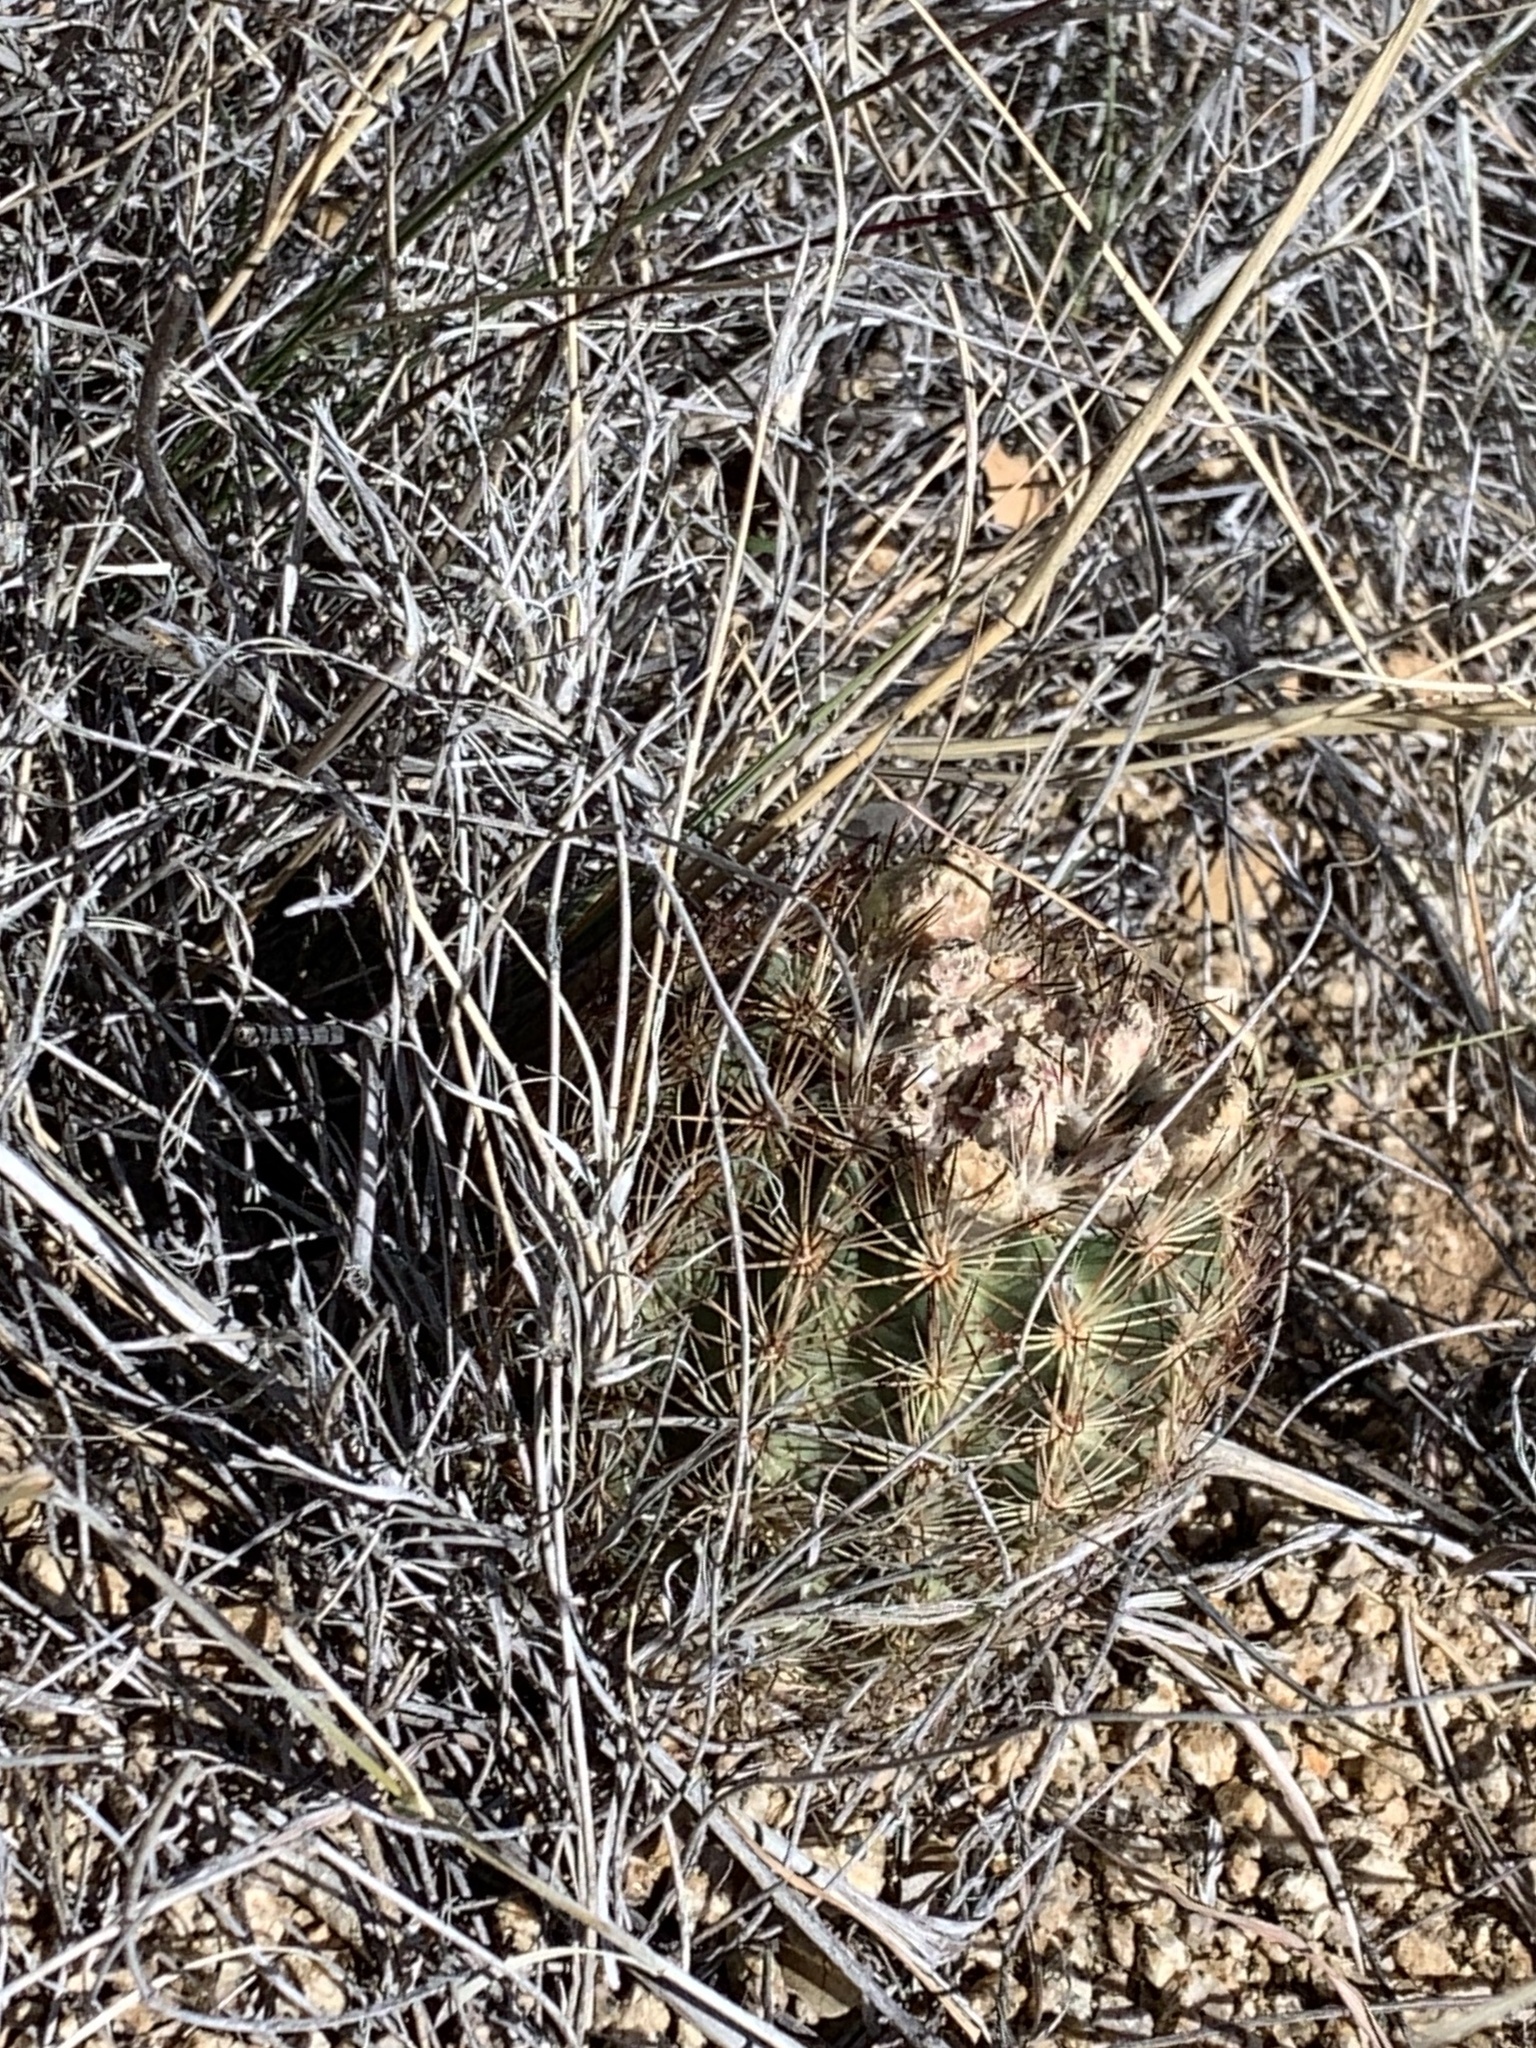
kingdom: Plantae
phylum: Tracheophyta
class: Magnoliopsida
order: Caryophyllales
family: Cactaceae
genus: Sclerocactus
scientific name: Sclerocactus intertextus
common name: White fish-hook cactus
